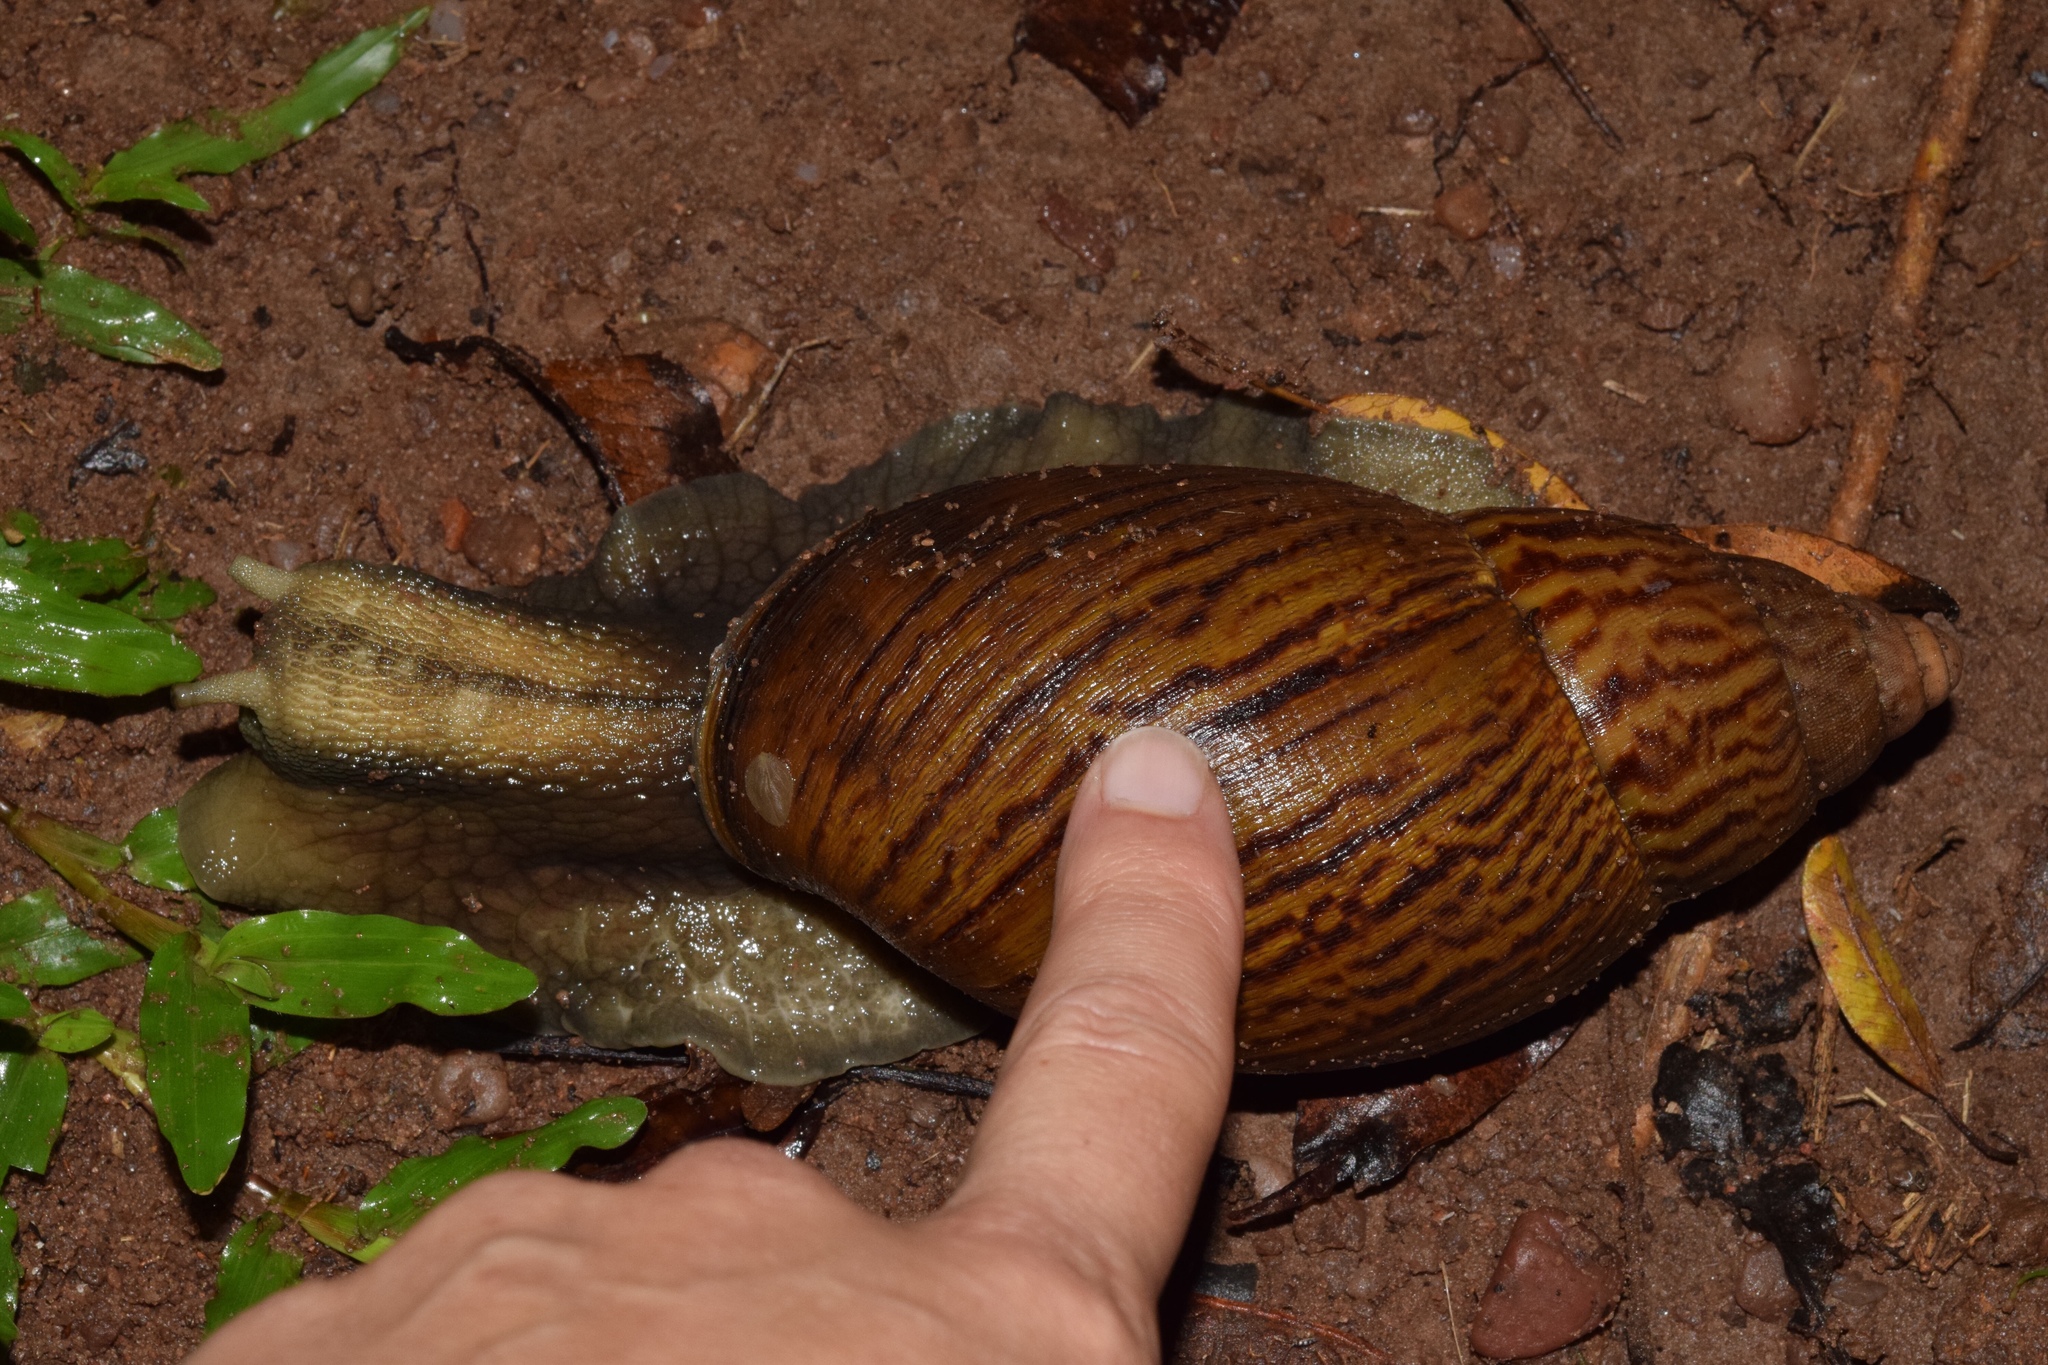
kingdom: Animalia
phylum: Mollusca
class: Gastropoda
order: Stylommatophora
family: Achatinidae
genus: Cochlitoma
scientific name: Cochlitoma granulata
